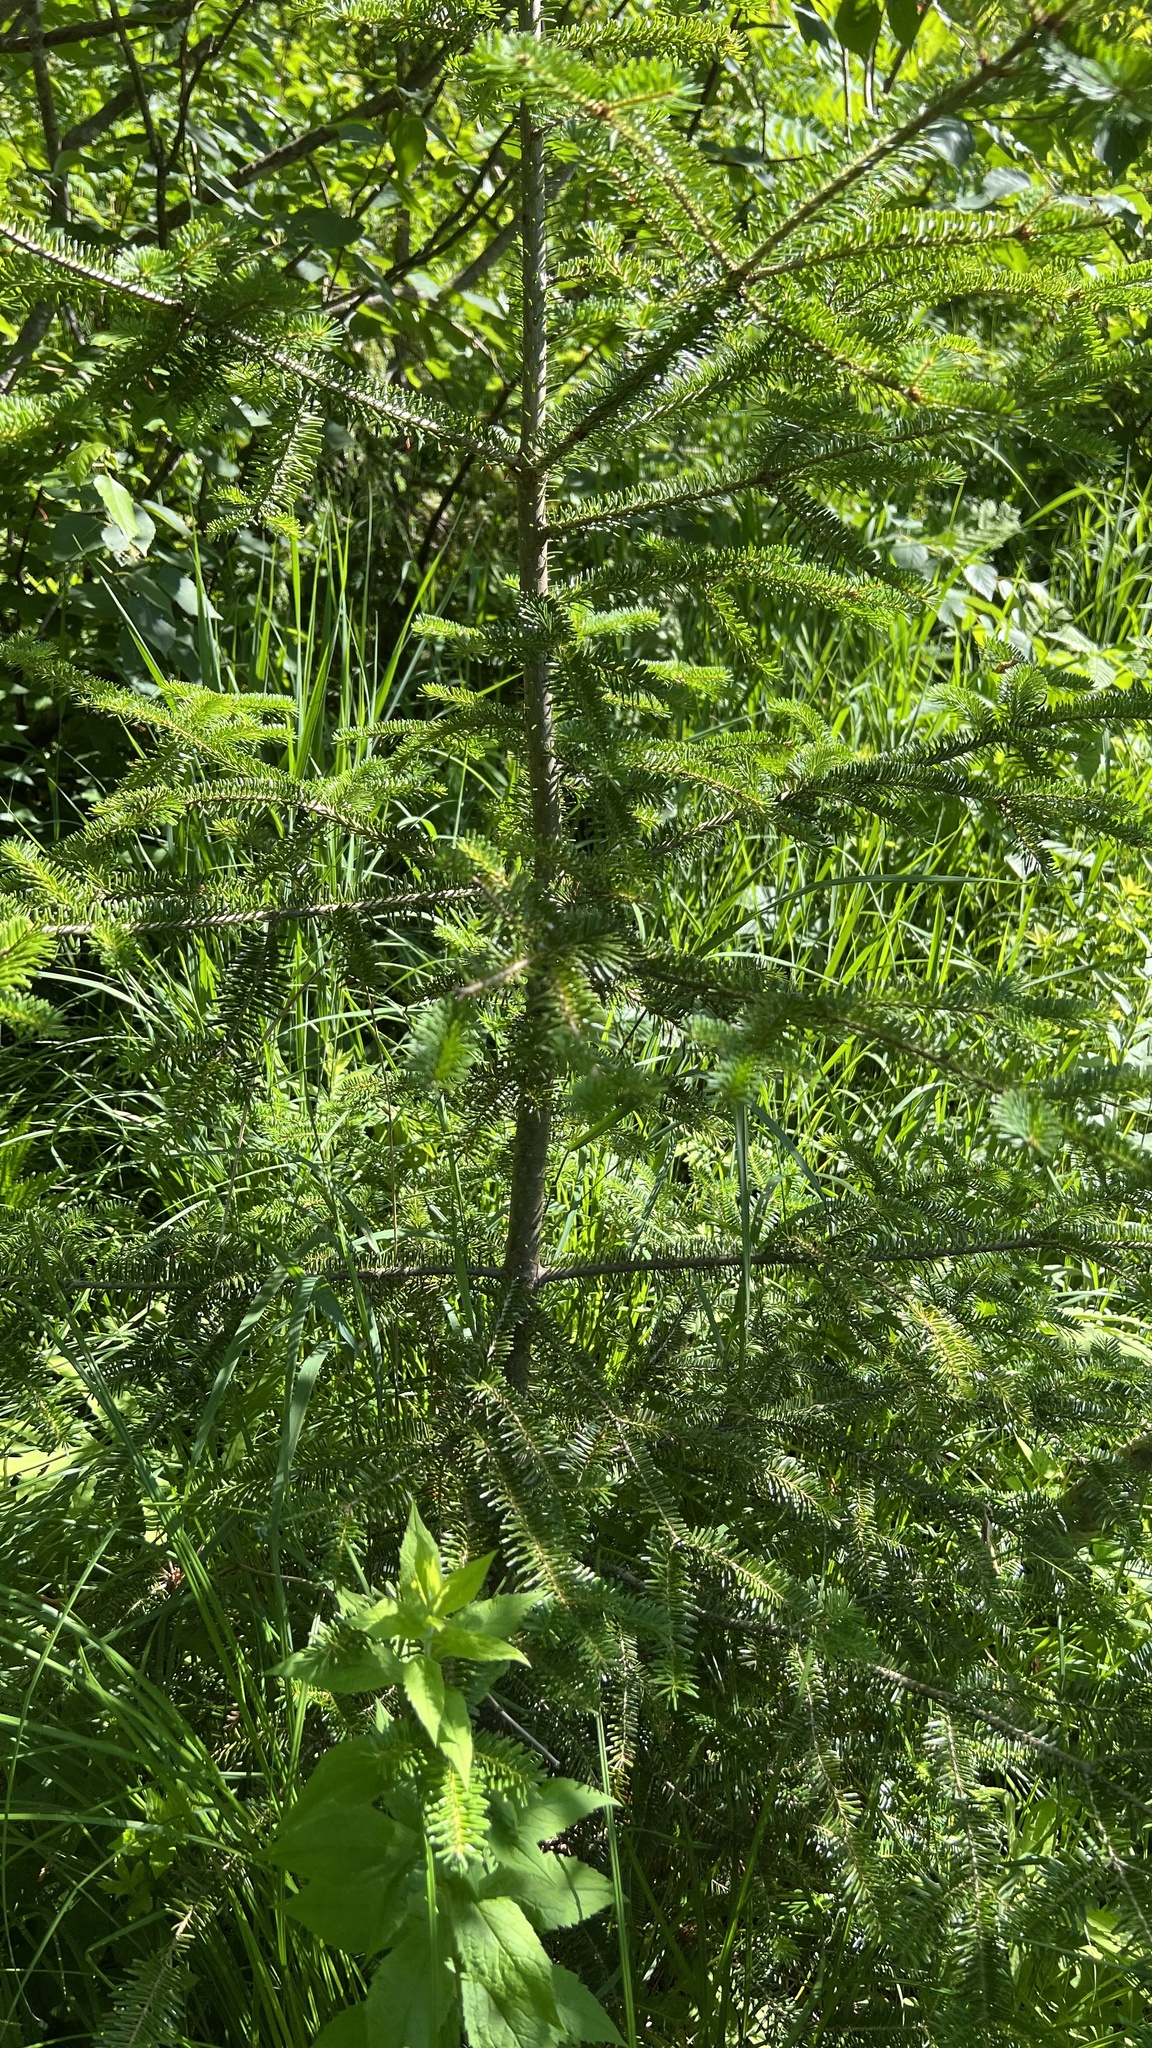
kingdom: Plantae
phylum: Tracheophyta
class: Pinopsida
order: Pinales
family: Pinaceae
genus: Abies
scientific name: Abies balsamea
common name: Balsam fir
